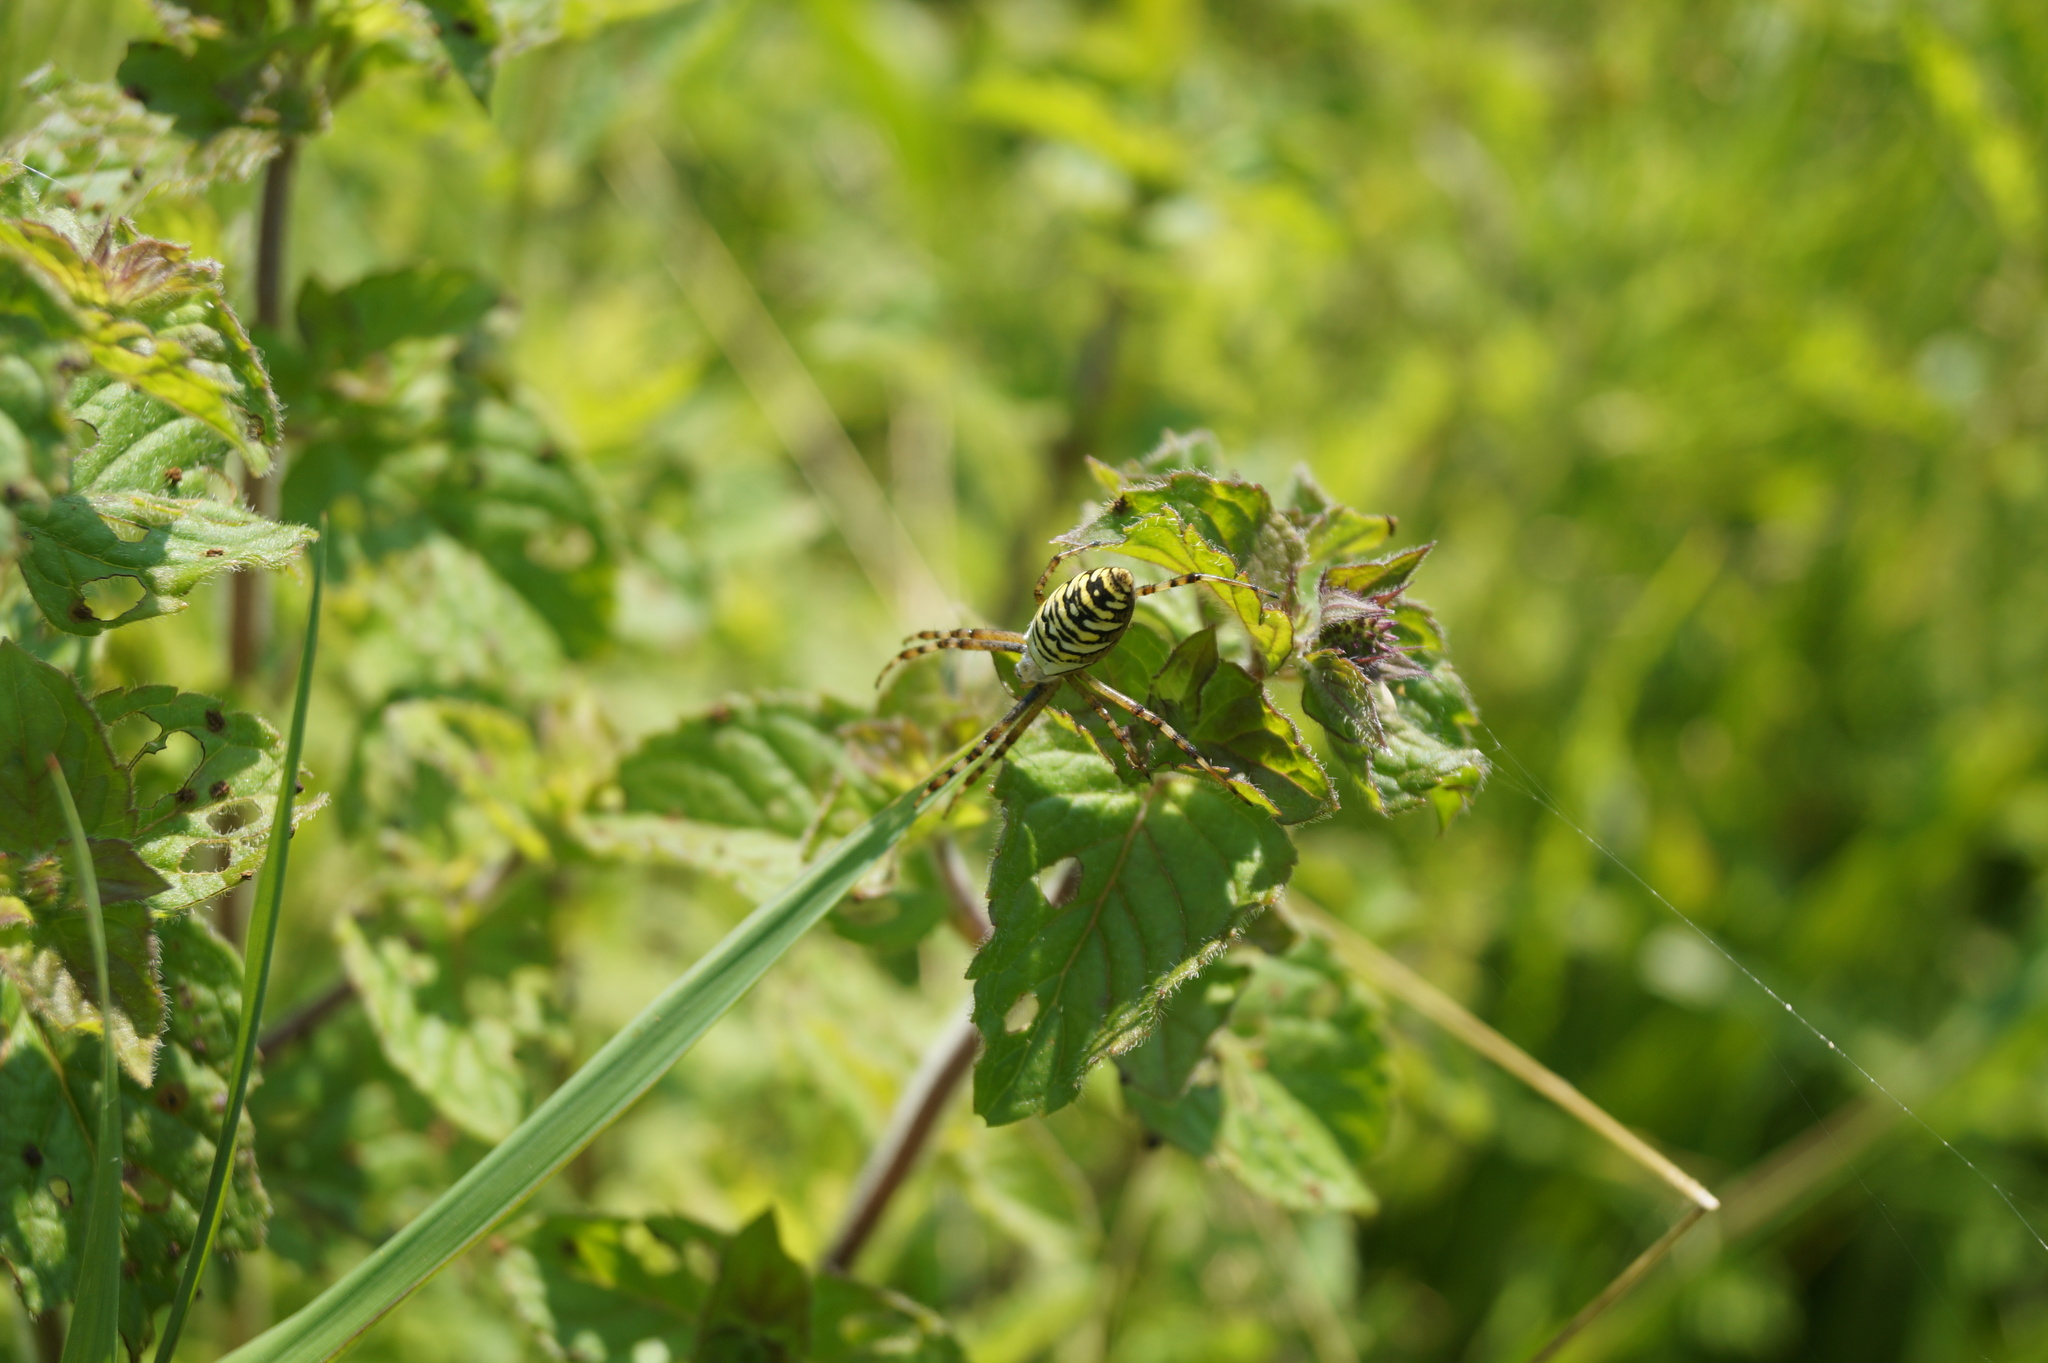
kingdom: Animalia
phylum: Arthropoda
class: Arachnida
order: Araneae
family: Araneidae
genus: Argiope
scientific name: Argiope bruennichi
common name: Wasp spider
